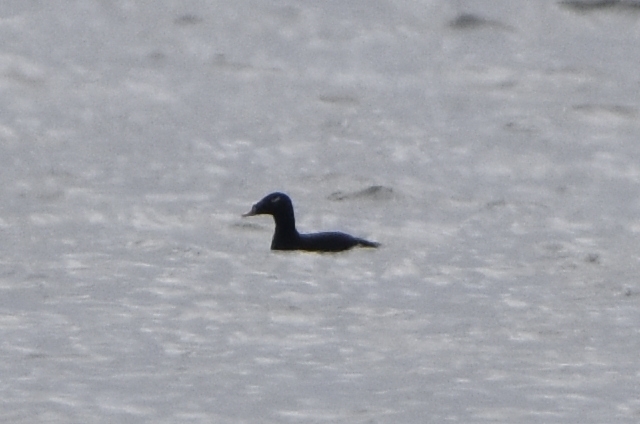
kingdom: Animalia
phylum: Chordata
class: Aves
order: Anseriformes
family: Anatidae
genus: Melanitta
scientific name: Melanitta stejnegeri
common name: Stejneger's scoter
